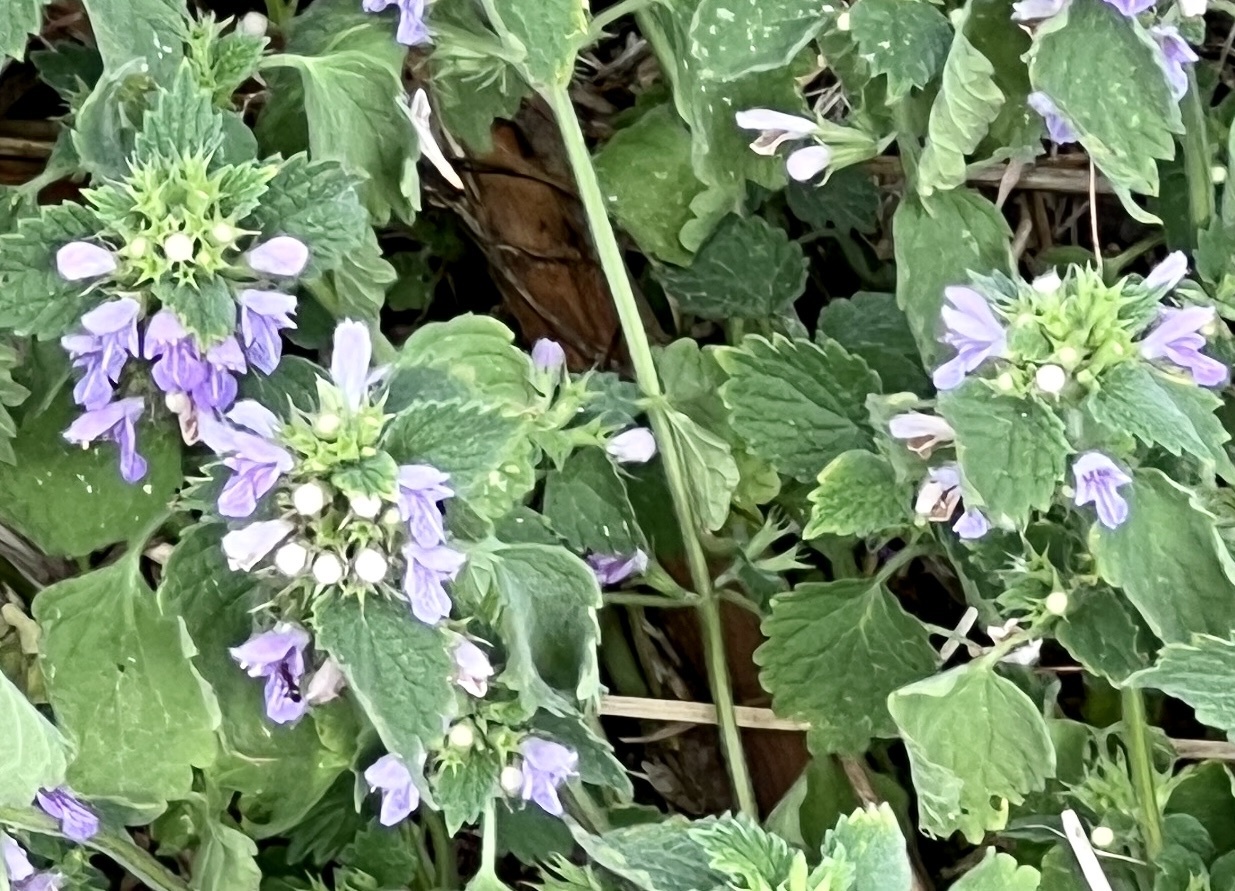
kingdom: Plantae
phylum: Tracheophyta
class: Magnoliopsida
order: Lamiales
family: Lamiaceae
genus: Ballota
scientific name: Ballota nigra
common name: Black horehound
